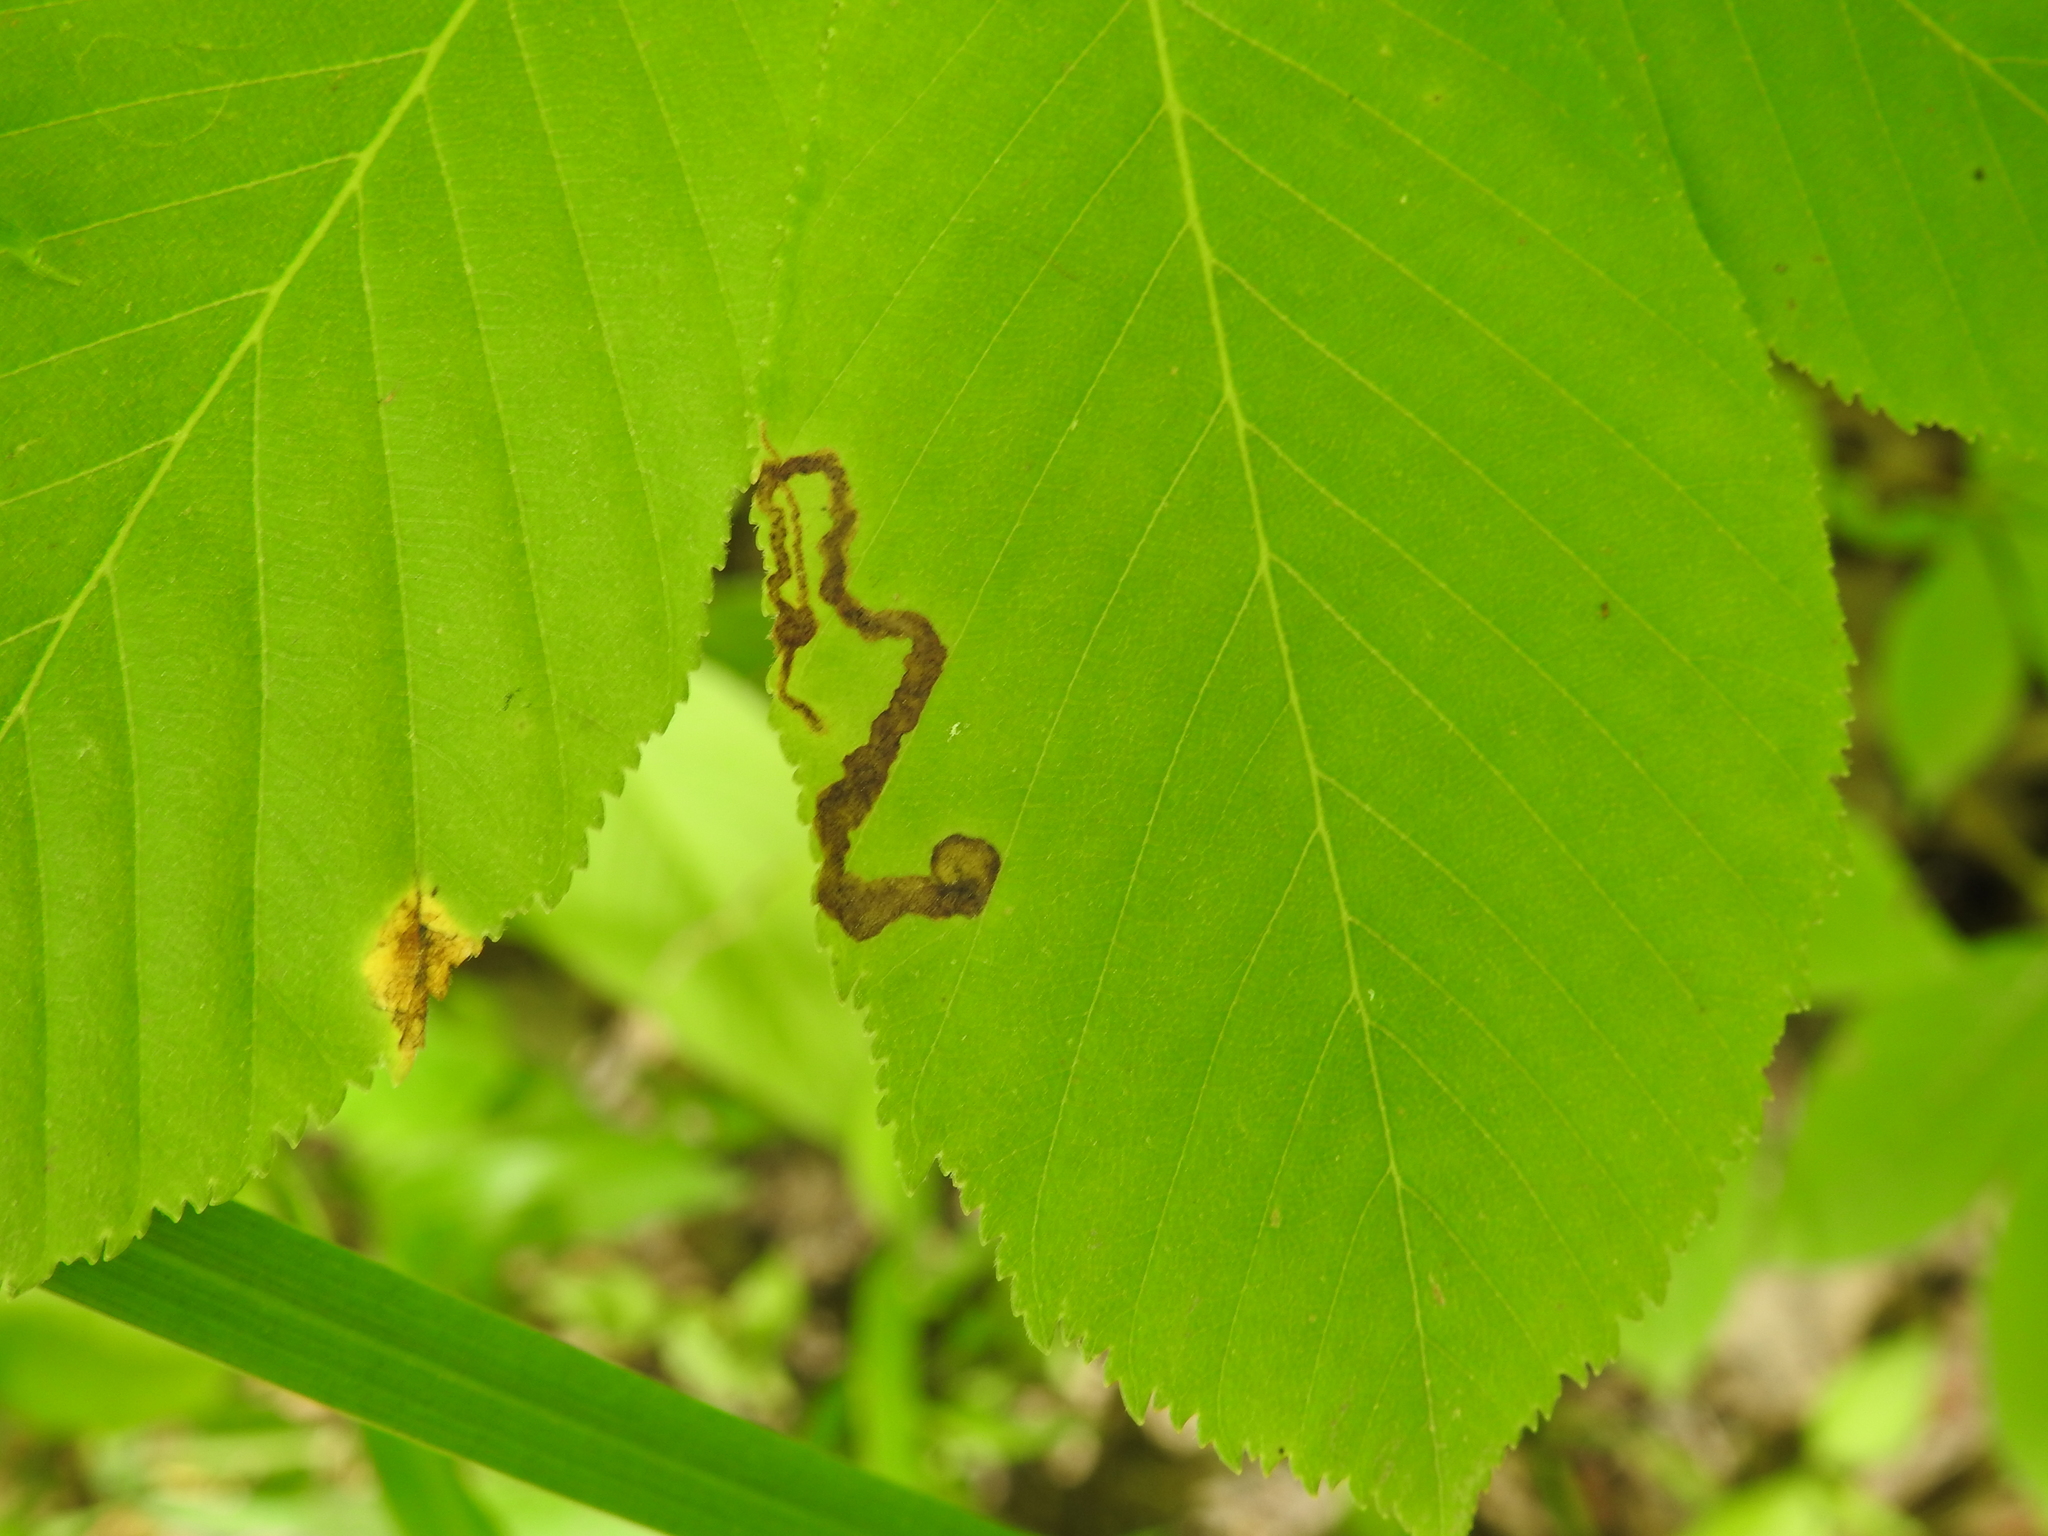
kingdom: Animalia
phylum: Arthropoda
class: Insecta
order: Diptera
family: Agromyzidae
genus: Phytomyza
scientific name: Phytomyza aesculi
